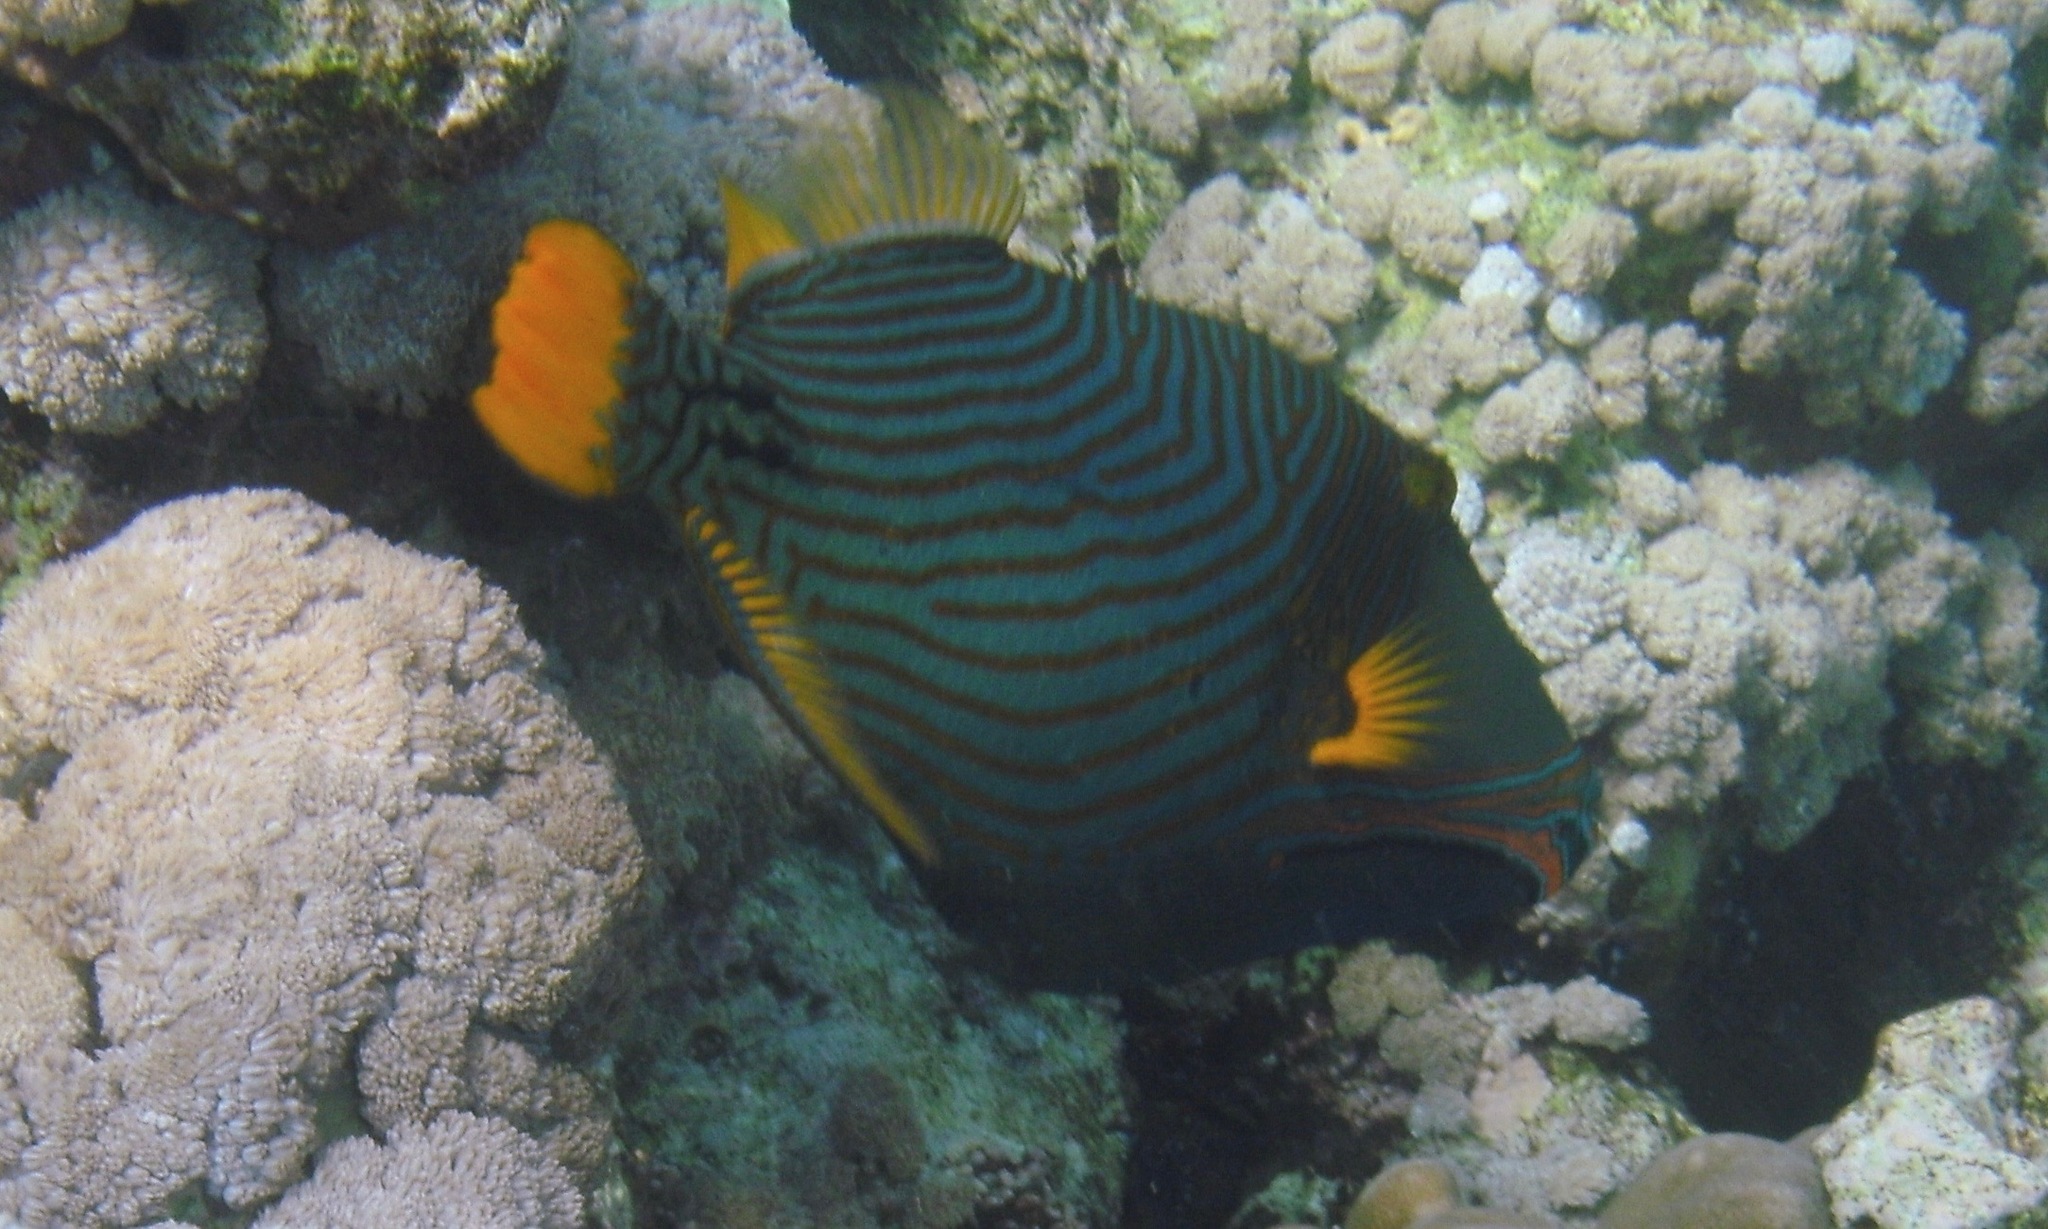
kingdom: Animalia
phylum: Chordata
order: Tetraodontiformes
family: Balistidae
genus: Balistapus
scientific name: Balistapus undulatus
